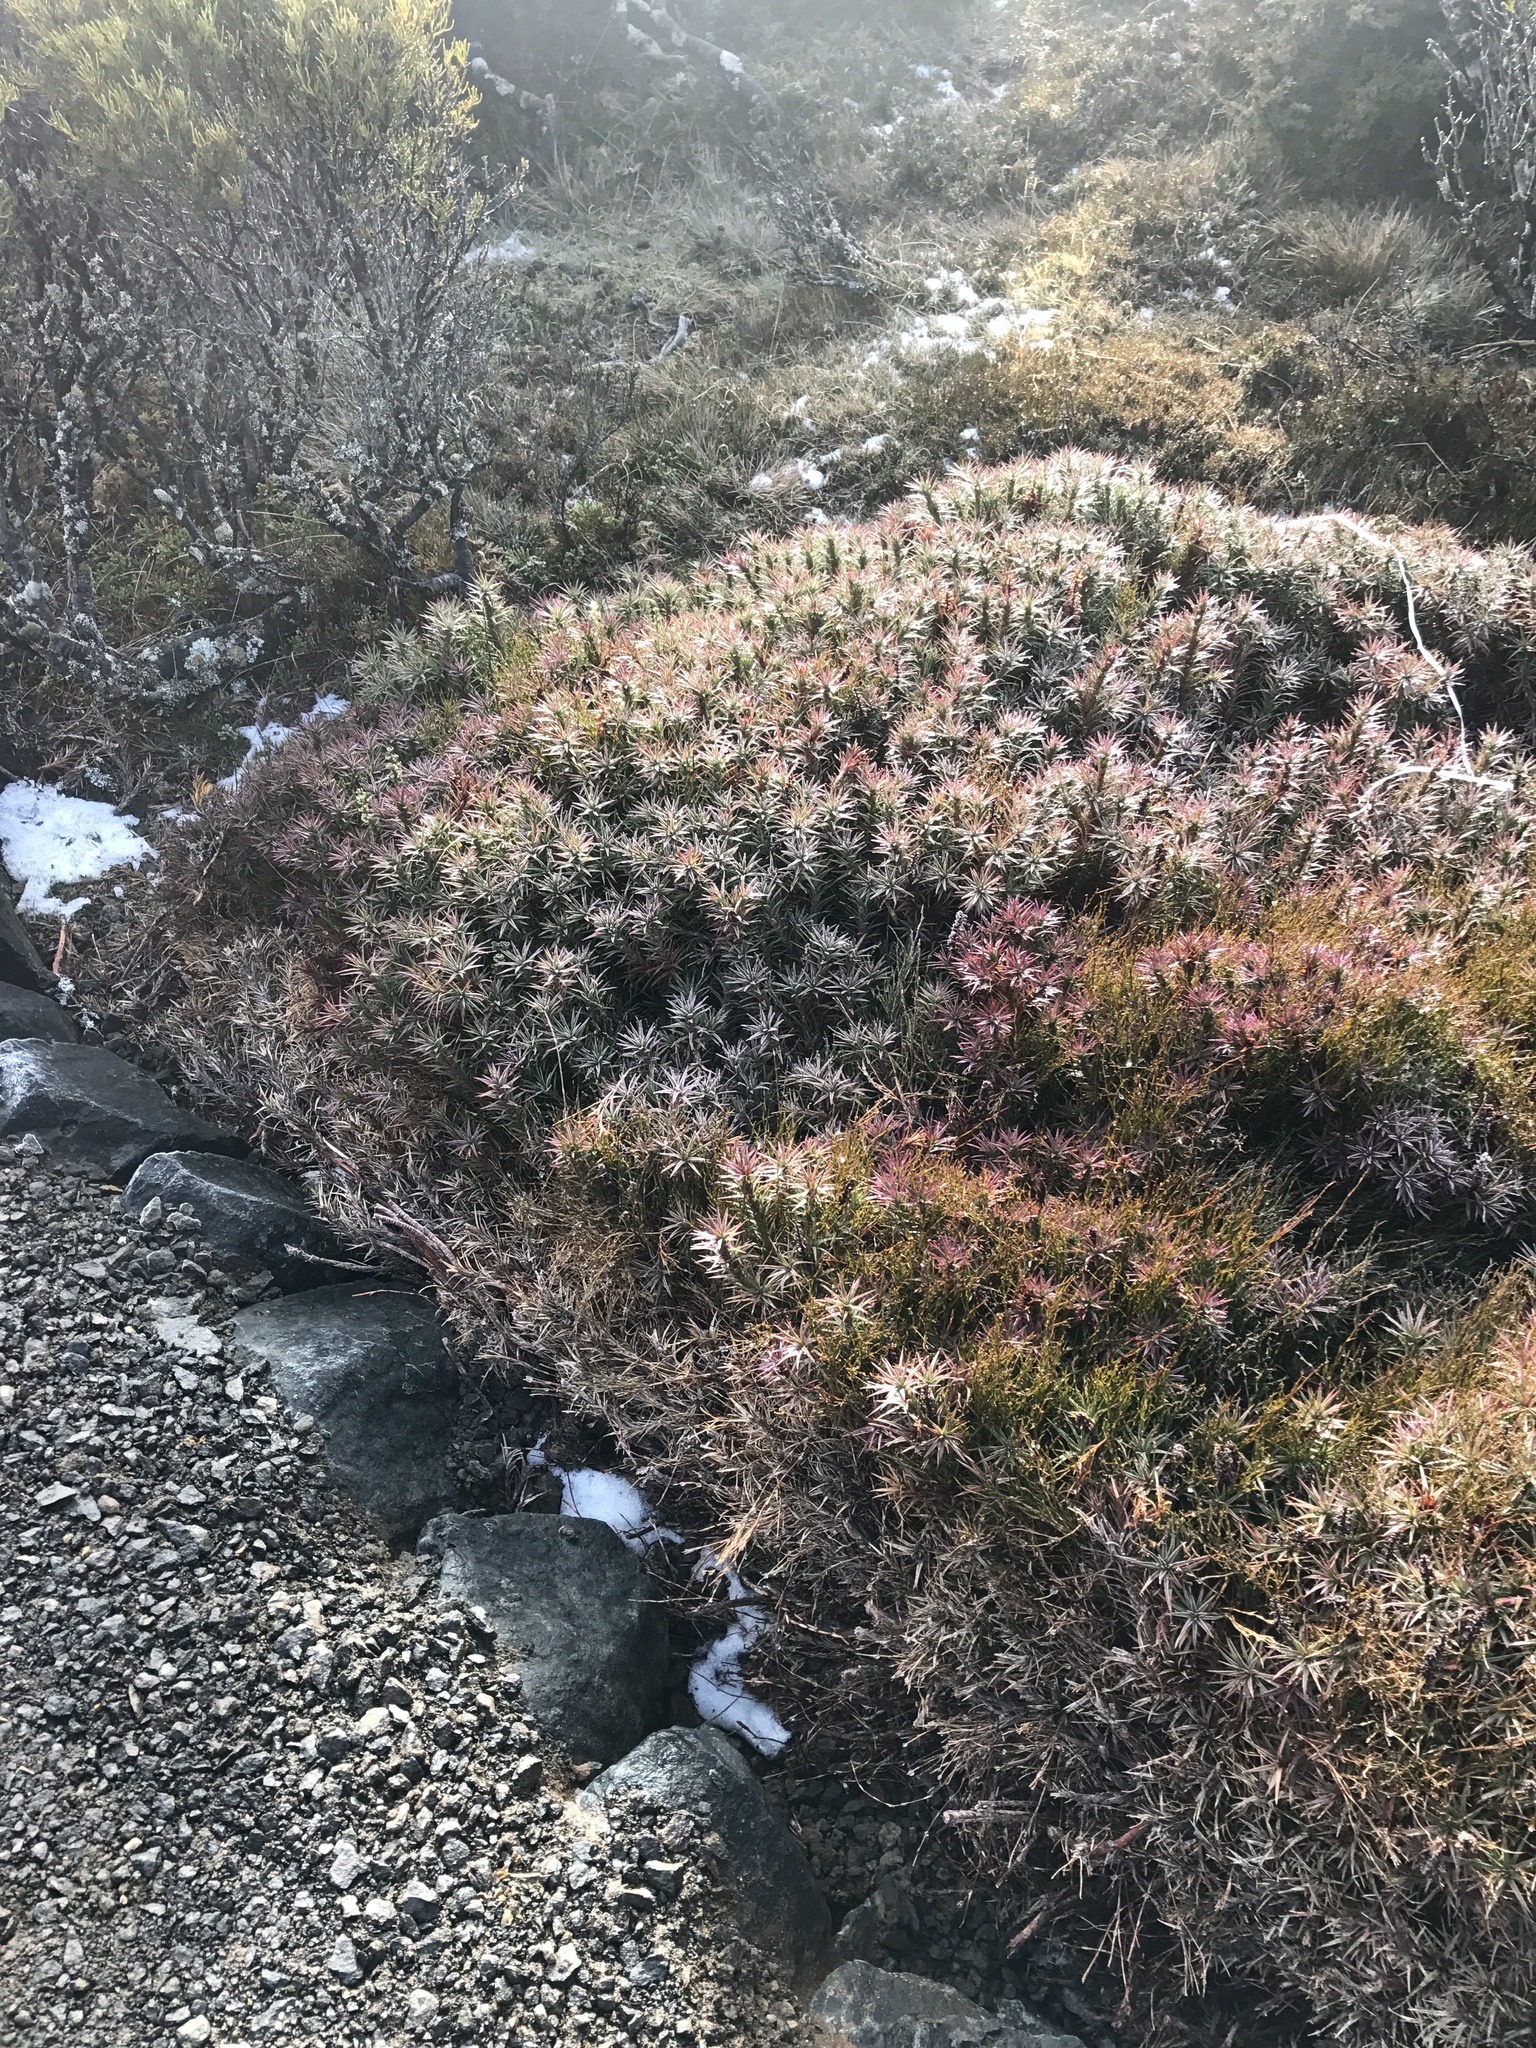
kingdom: Plantae
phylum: Tracheophyta
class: Magnoliopsida
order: Ericales
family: Ericaceae
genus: Dracophyllum
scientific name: Dracophyllum persistentifolium
